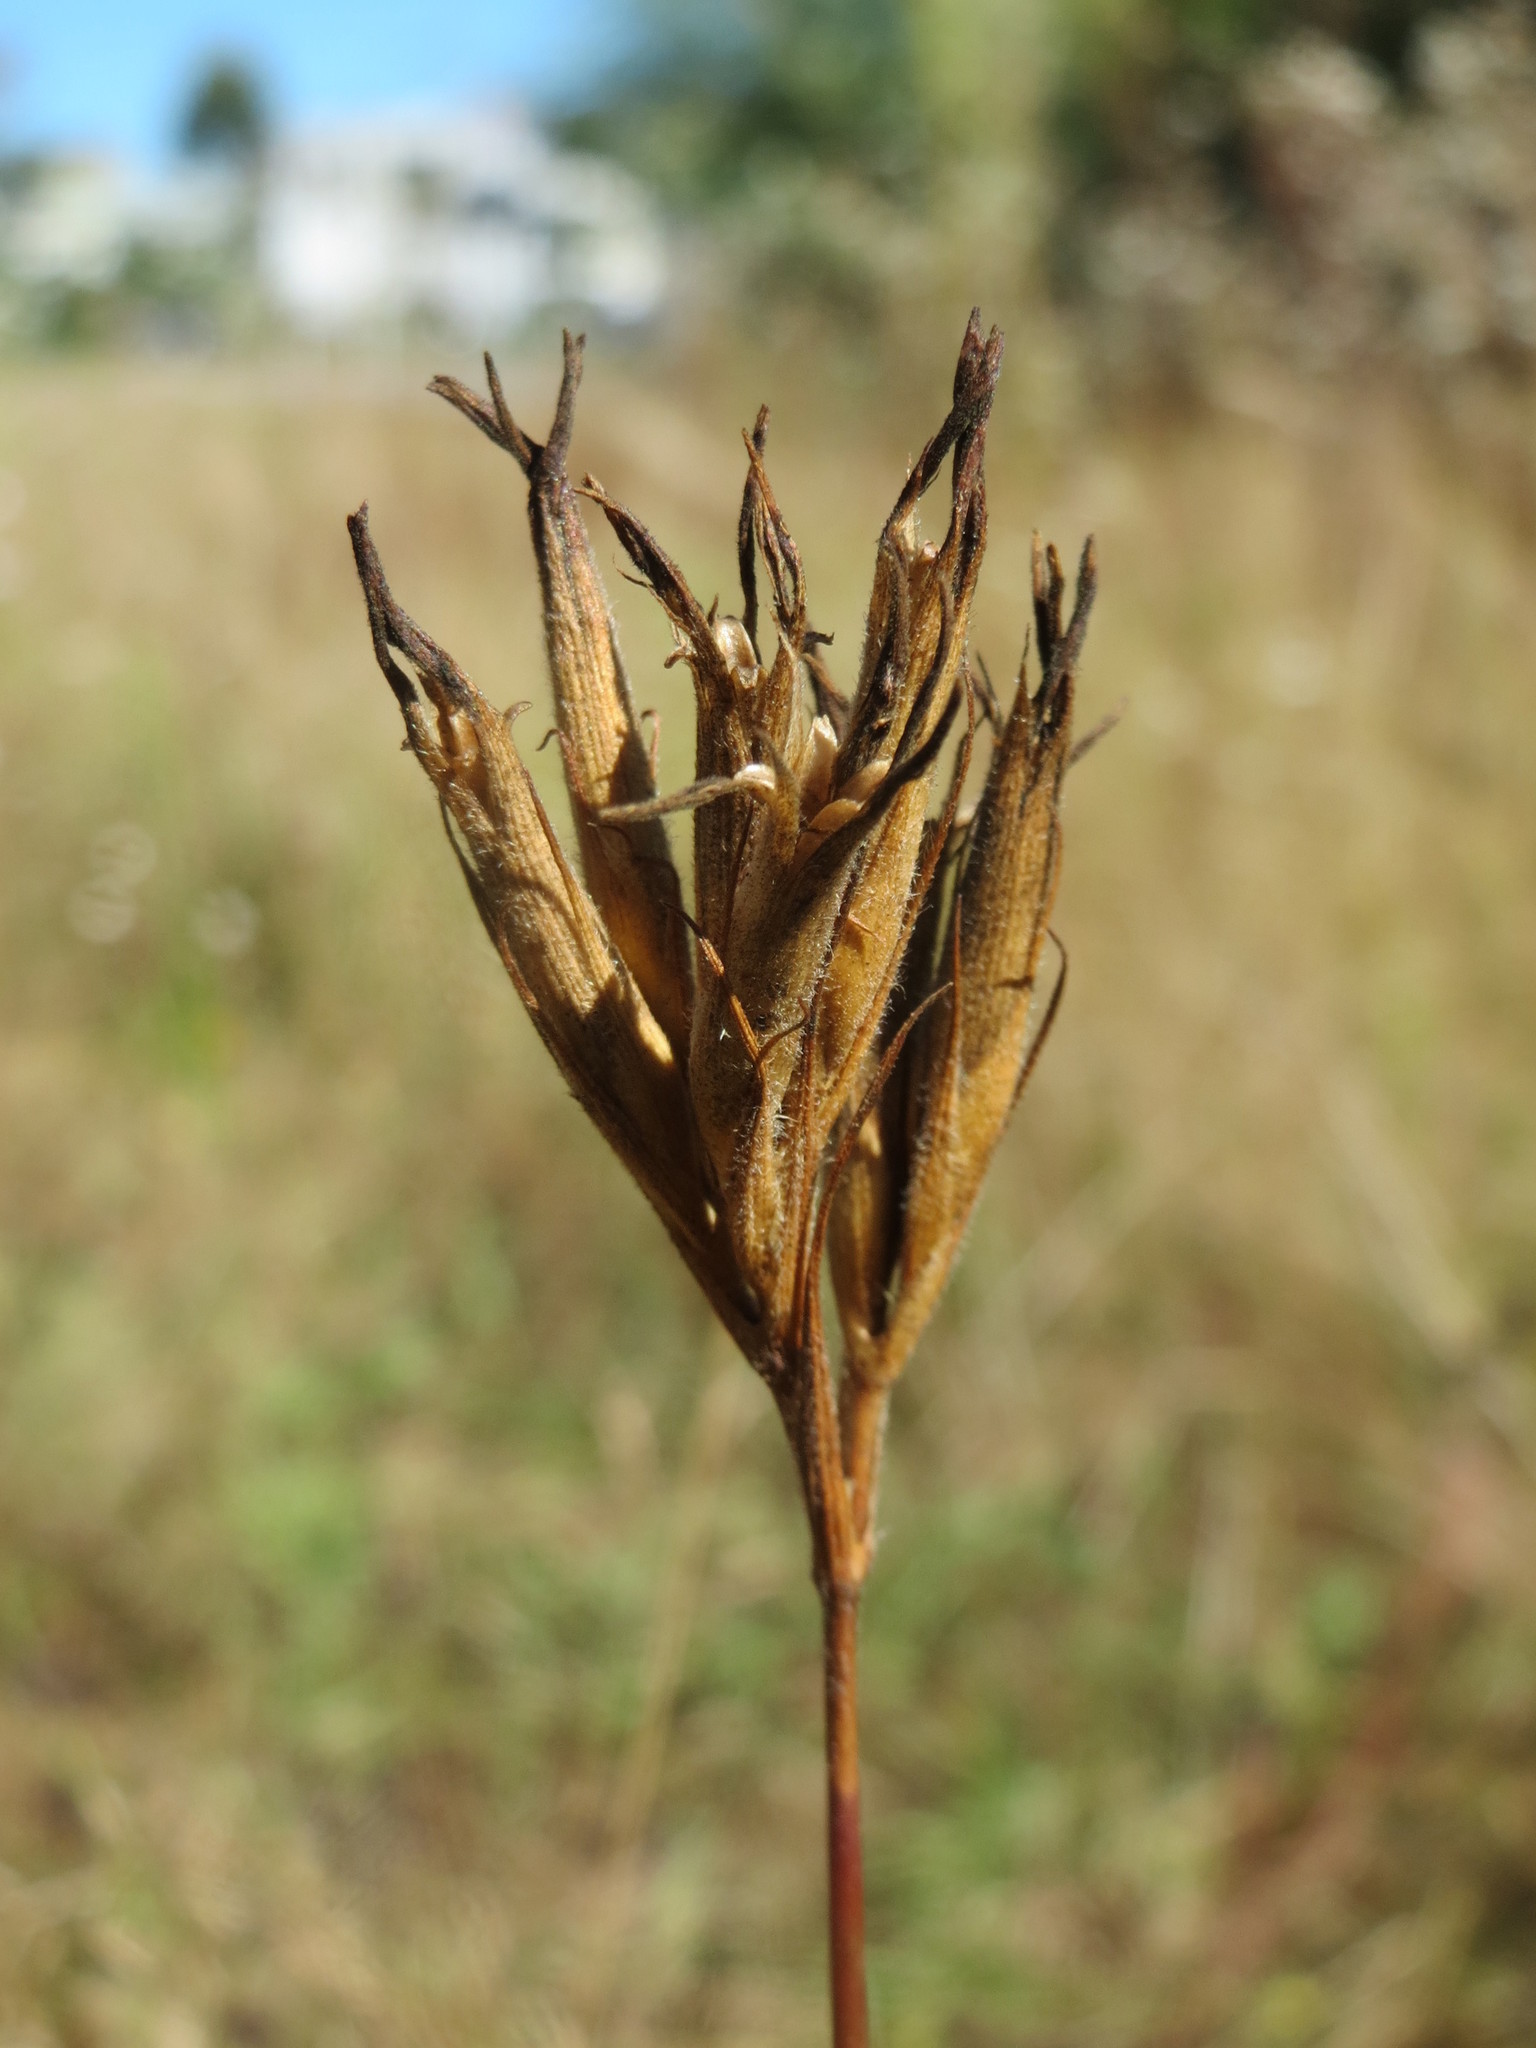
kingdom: Plantae
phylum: Tracheophyta
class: Magnoliopsida
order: Caryophyllales
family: Caryophyllaceae
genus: Dianthus
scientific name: Dianthus armeria
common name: Deptford pink
